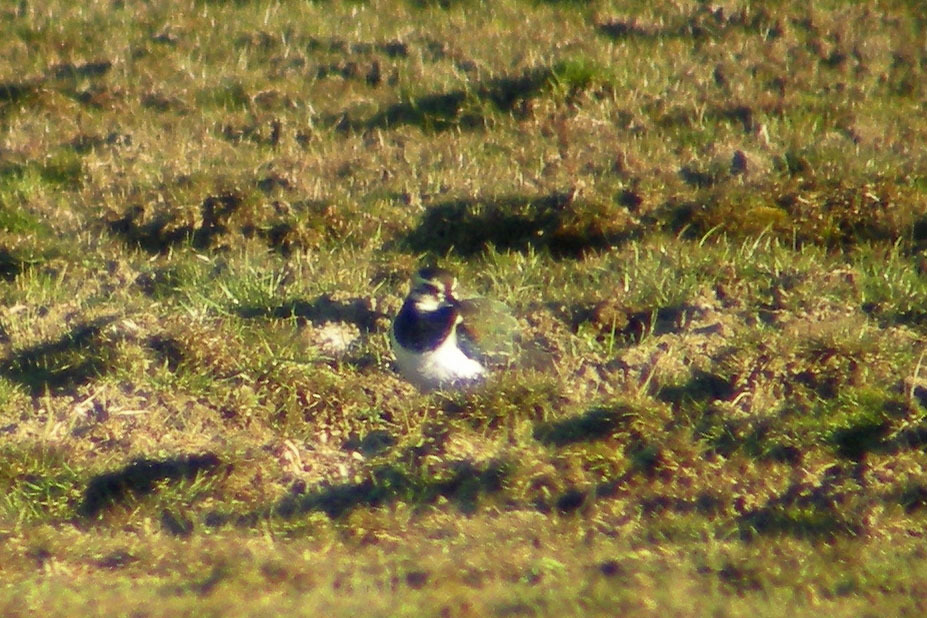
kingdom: Animalia
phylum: Chordata
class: Aves
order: Charadriiformes
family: Charadriidae
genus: Vanellus
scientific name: Vanellus vanellus
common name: Northern lapwing
